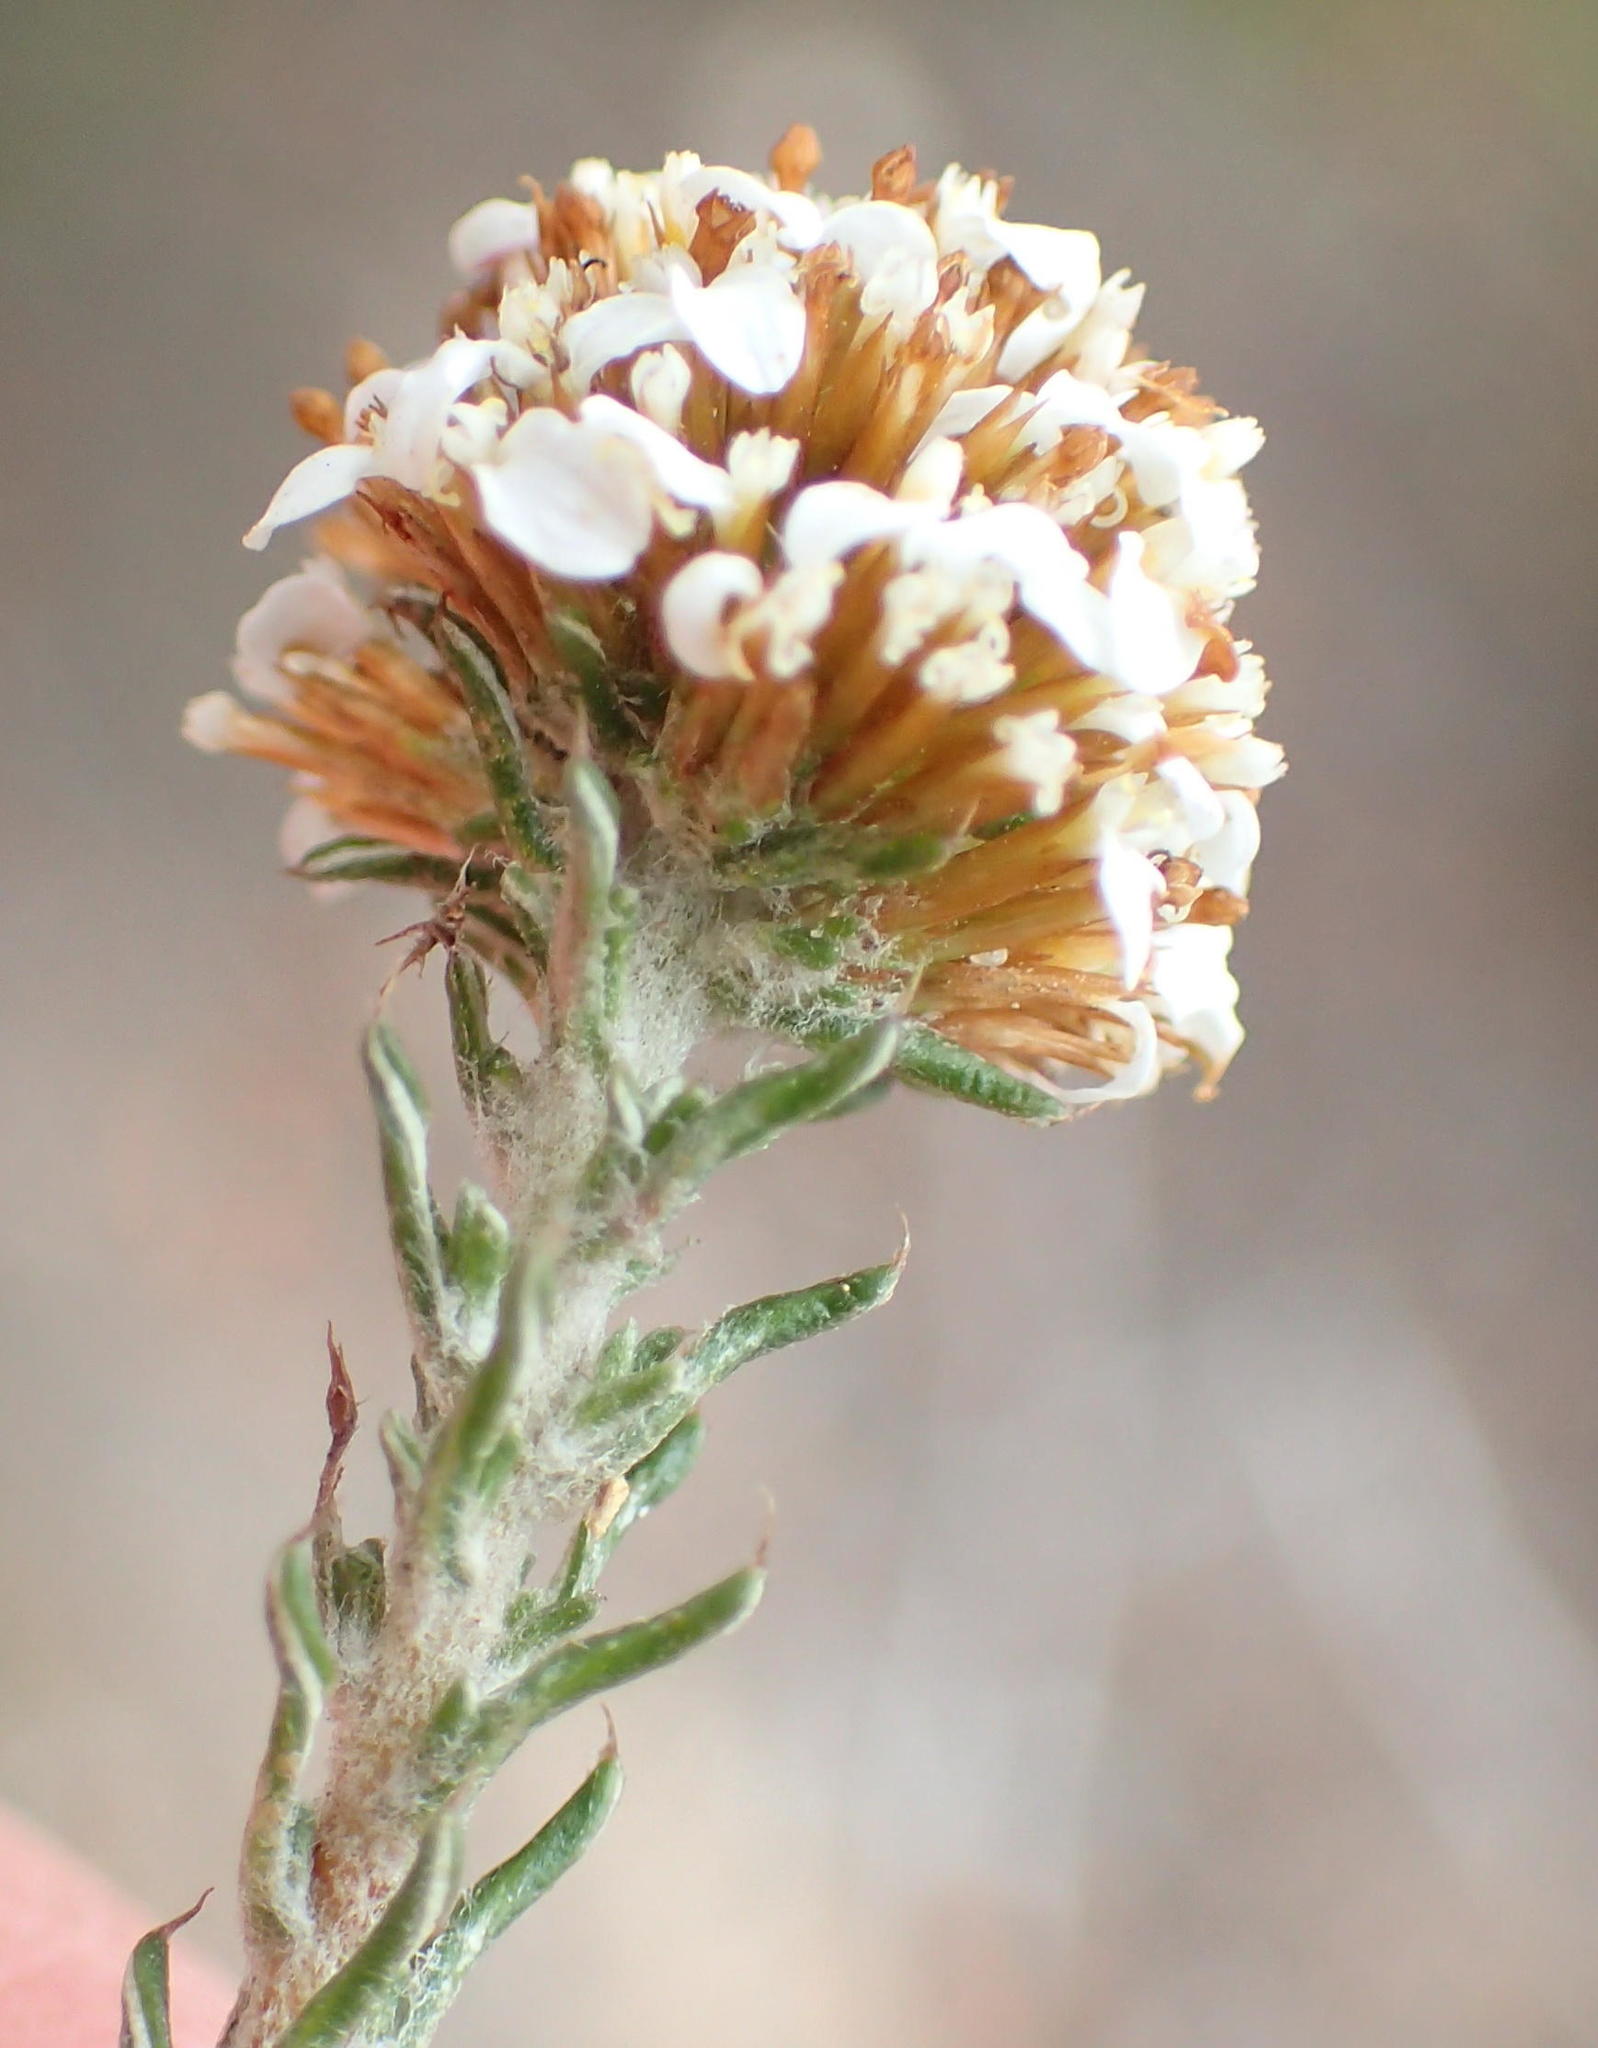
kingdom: Plantae
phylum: Tracheophyta
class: Magnoliopsida
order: Asterales
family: Asteraceae
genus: Disparago
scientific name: Disparago anomala
